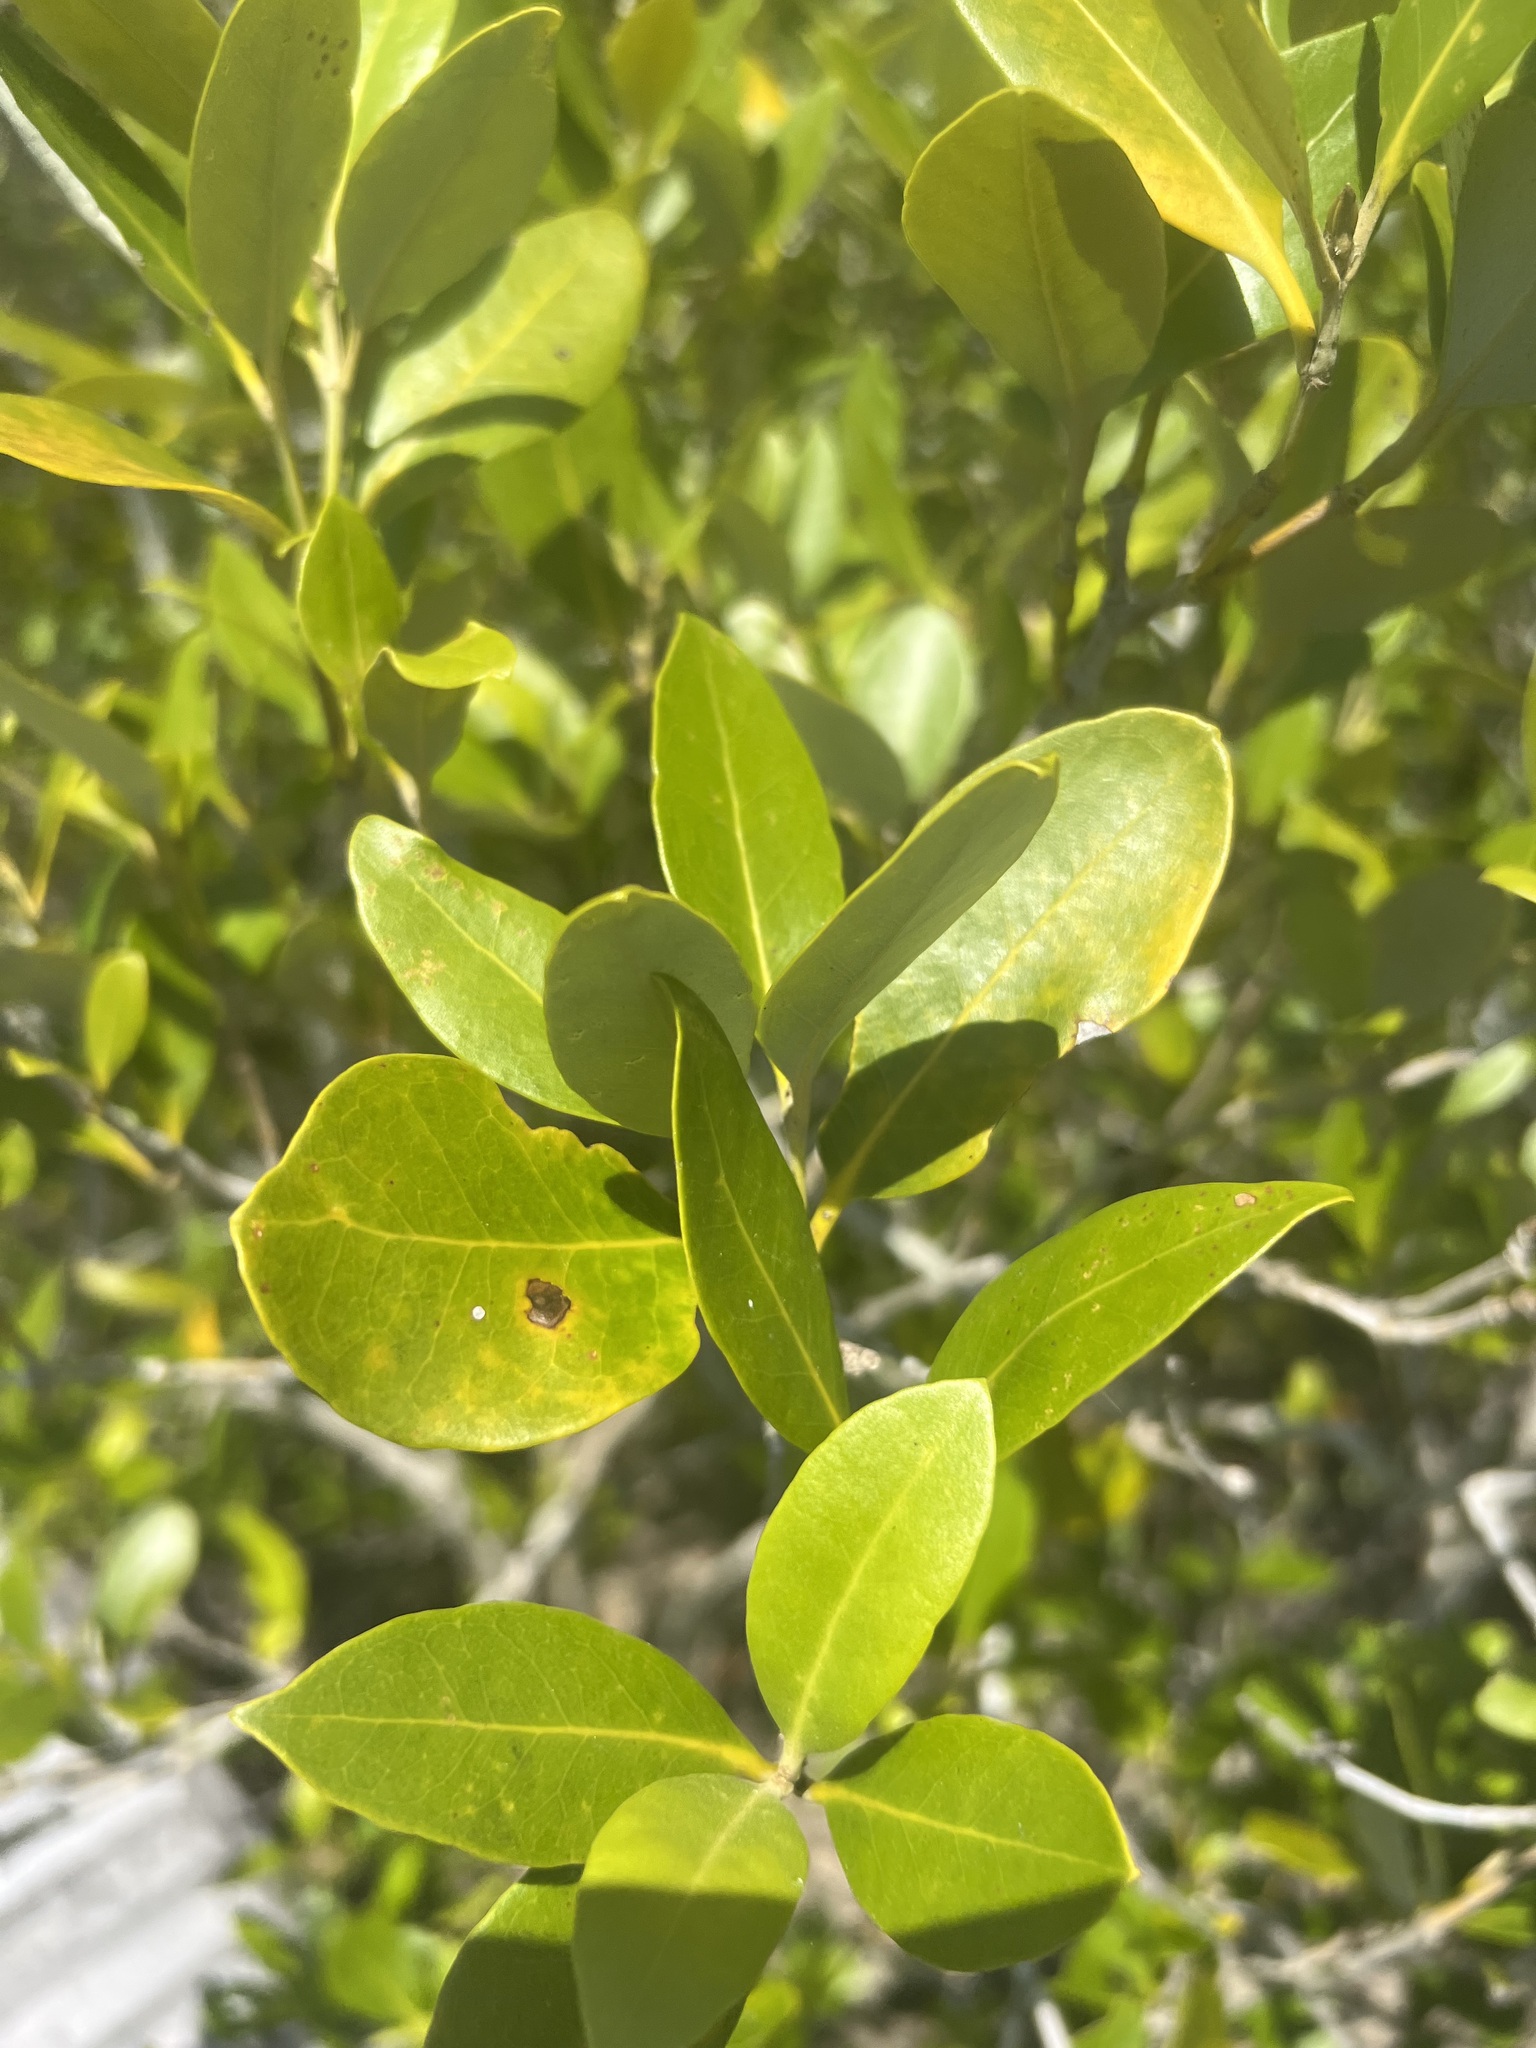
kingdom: Plantae
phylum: Tracheophyta
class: Magnoliopsida
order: Lamiales
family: Acanthaceae
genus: Avicennia
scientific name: Avicennia marina
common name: Gray mangrove
